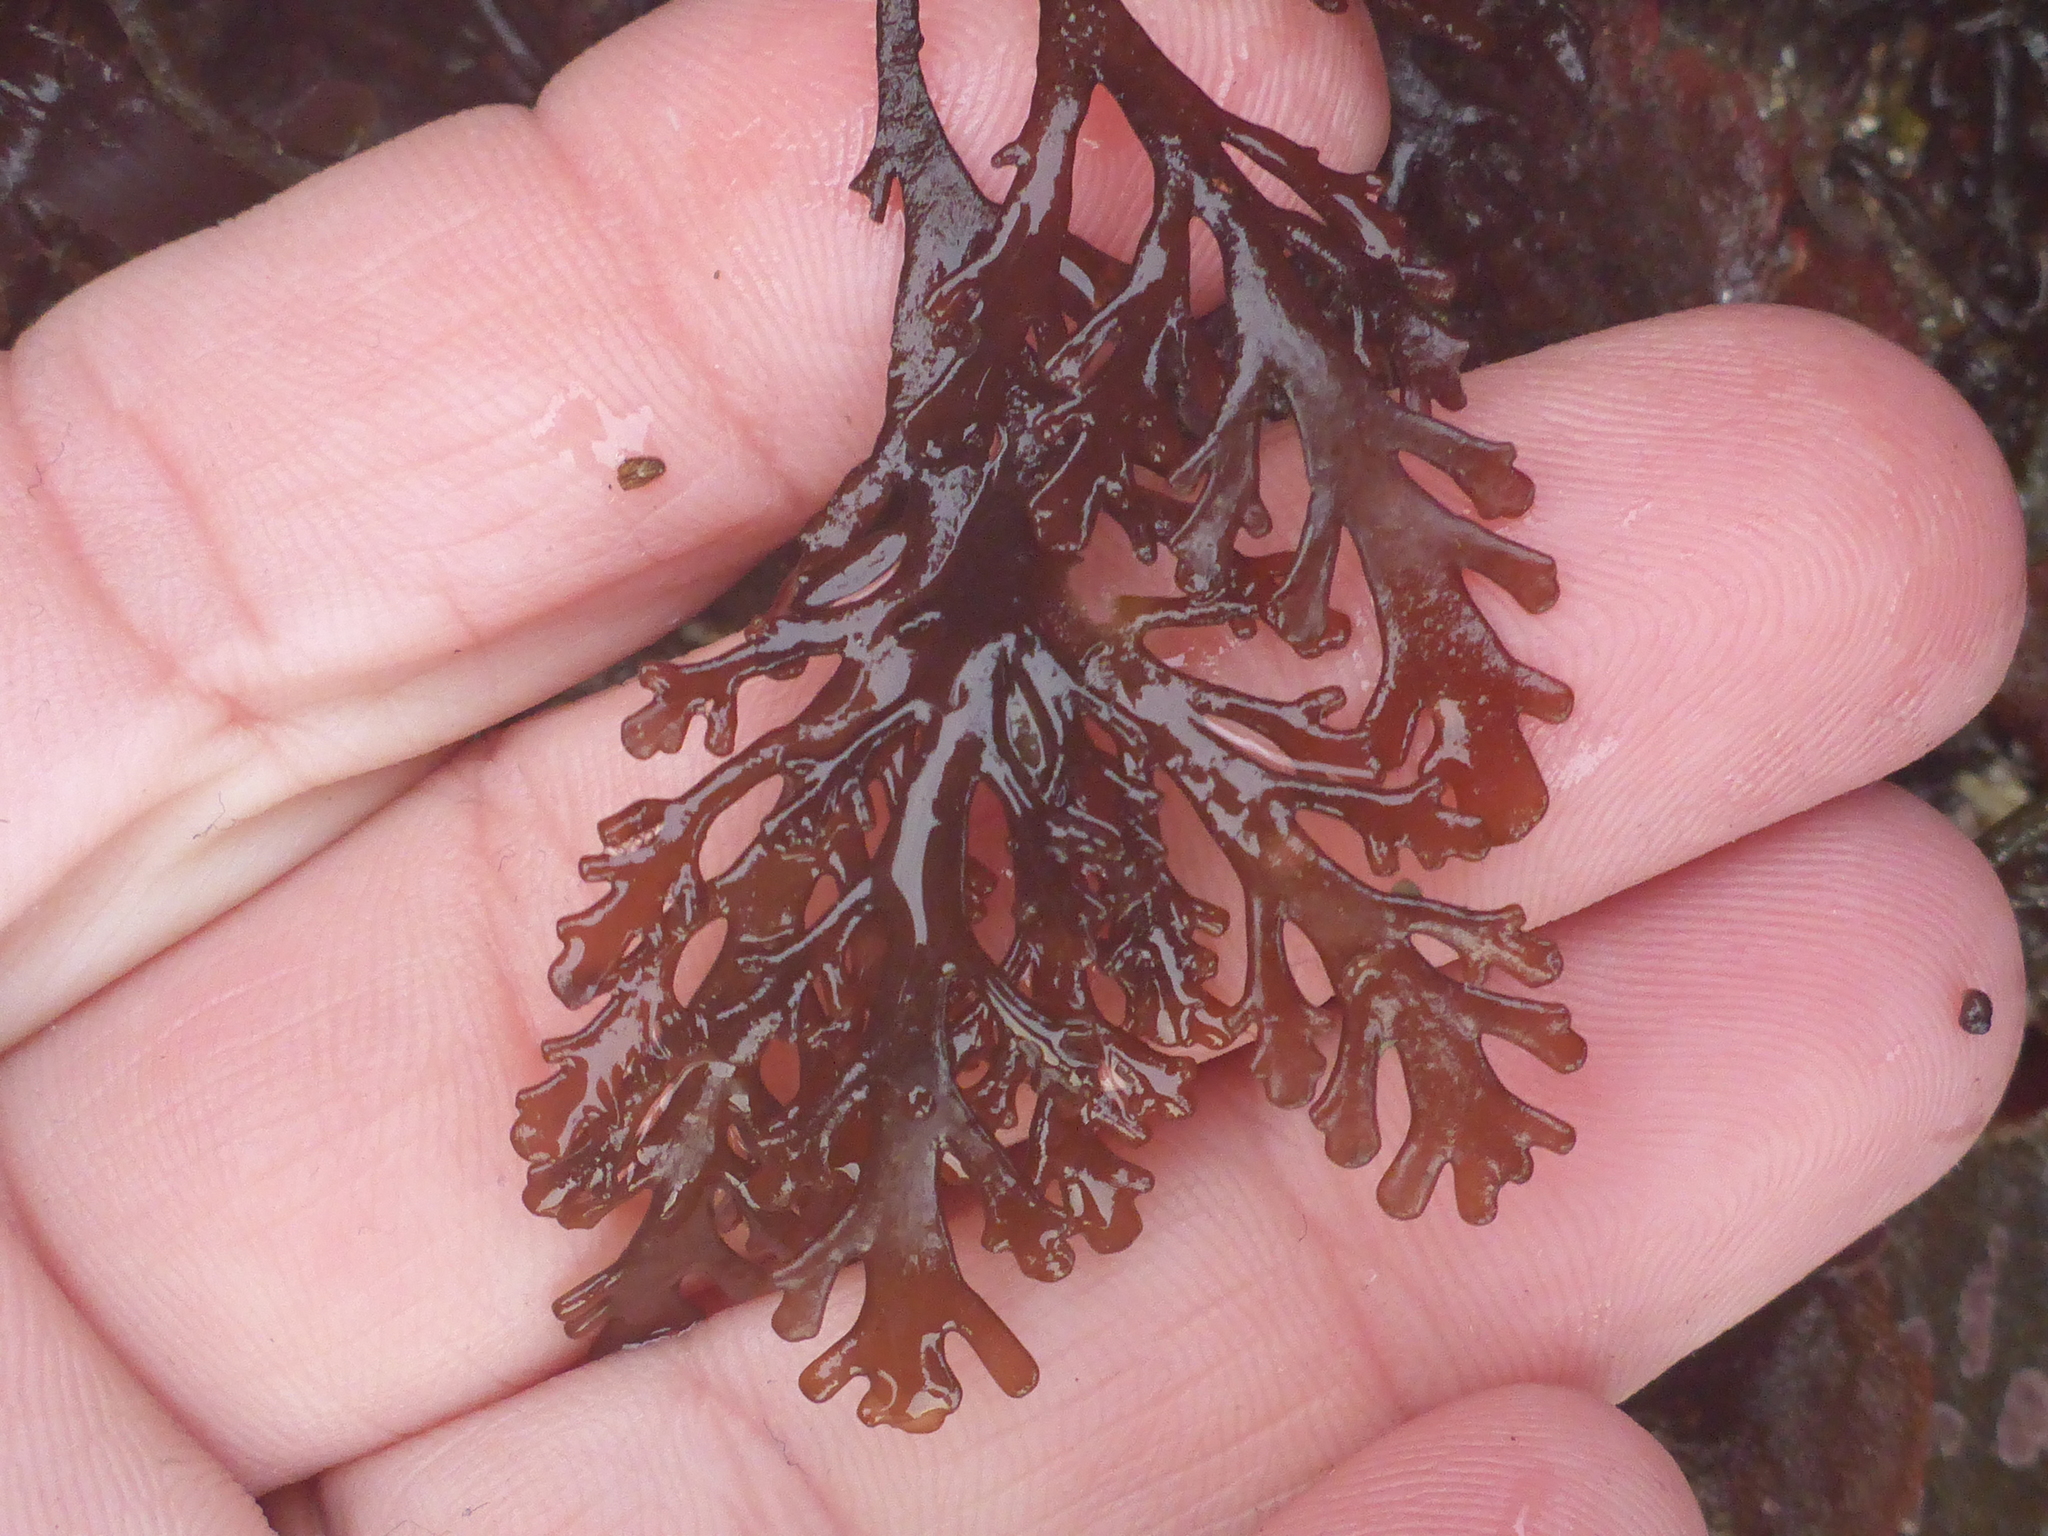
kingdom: Plantae
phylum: Rhodophyta
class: Florideophyceae
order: Ceramiales
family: Rhodomelaceae
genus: Osmundea
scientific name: Osmundea spectabilis
